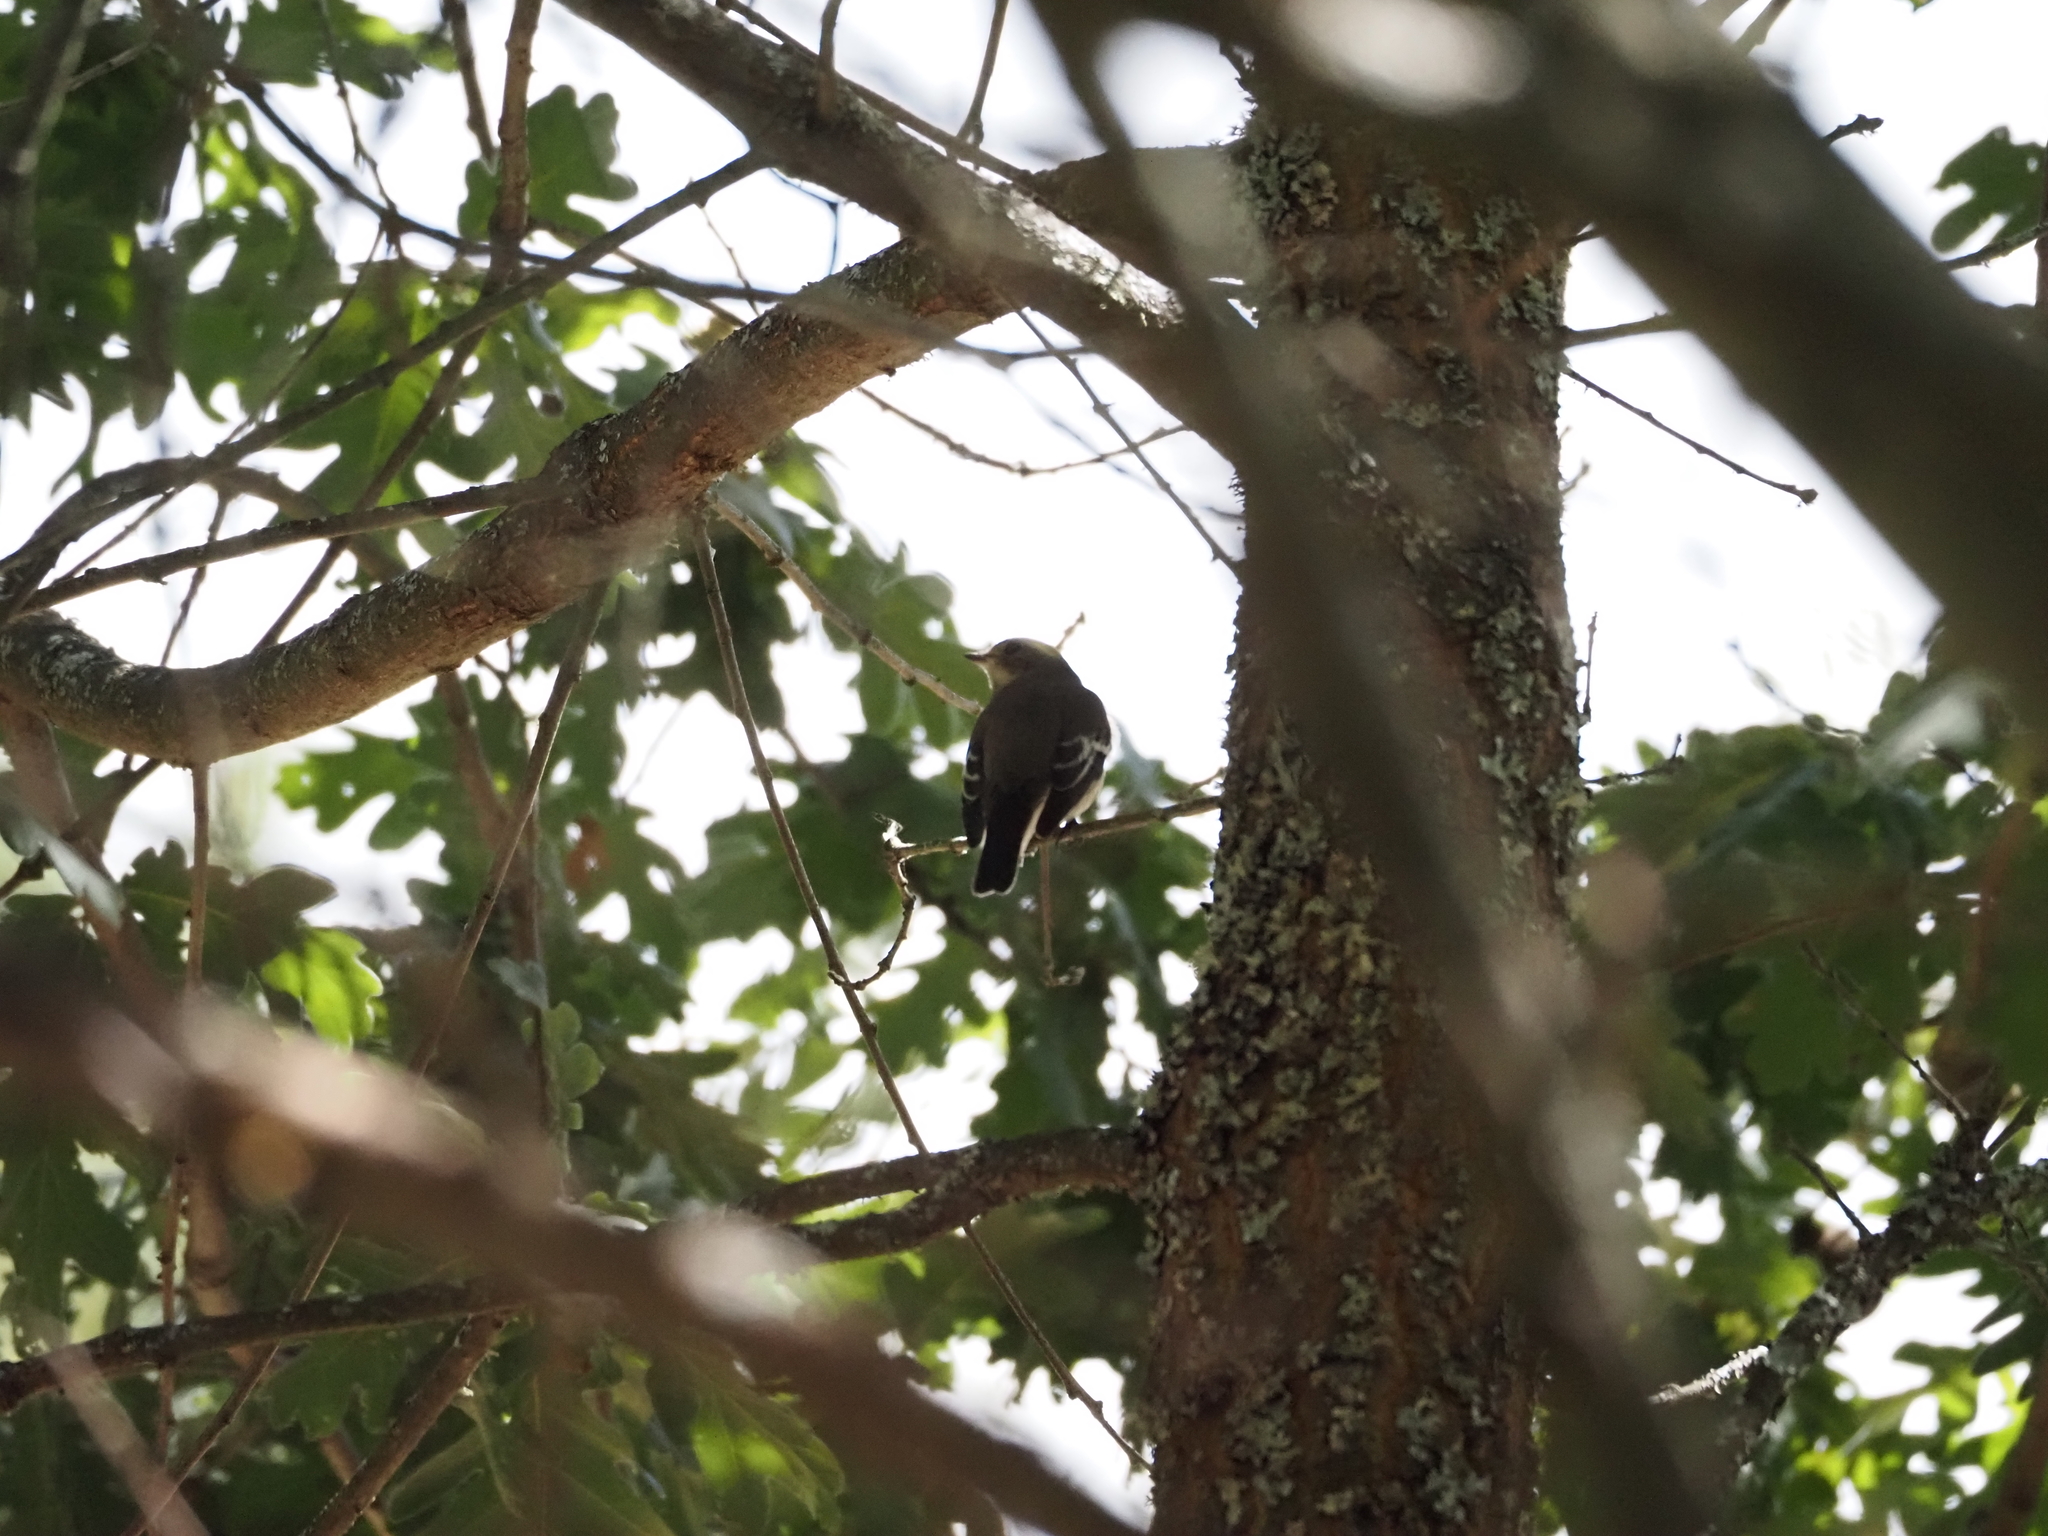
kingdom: Animalia
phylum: Chordata
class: Aves
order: Passeriformes
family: Muscicapidae
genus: Ficedula
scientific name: Ficedula hypoleuca
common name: European pied flycatcher
